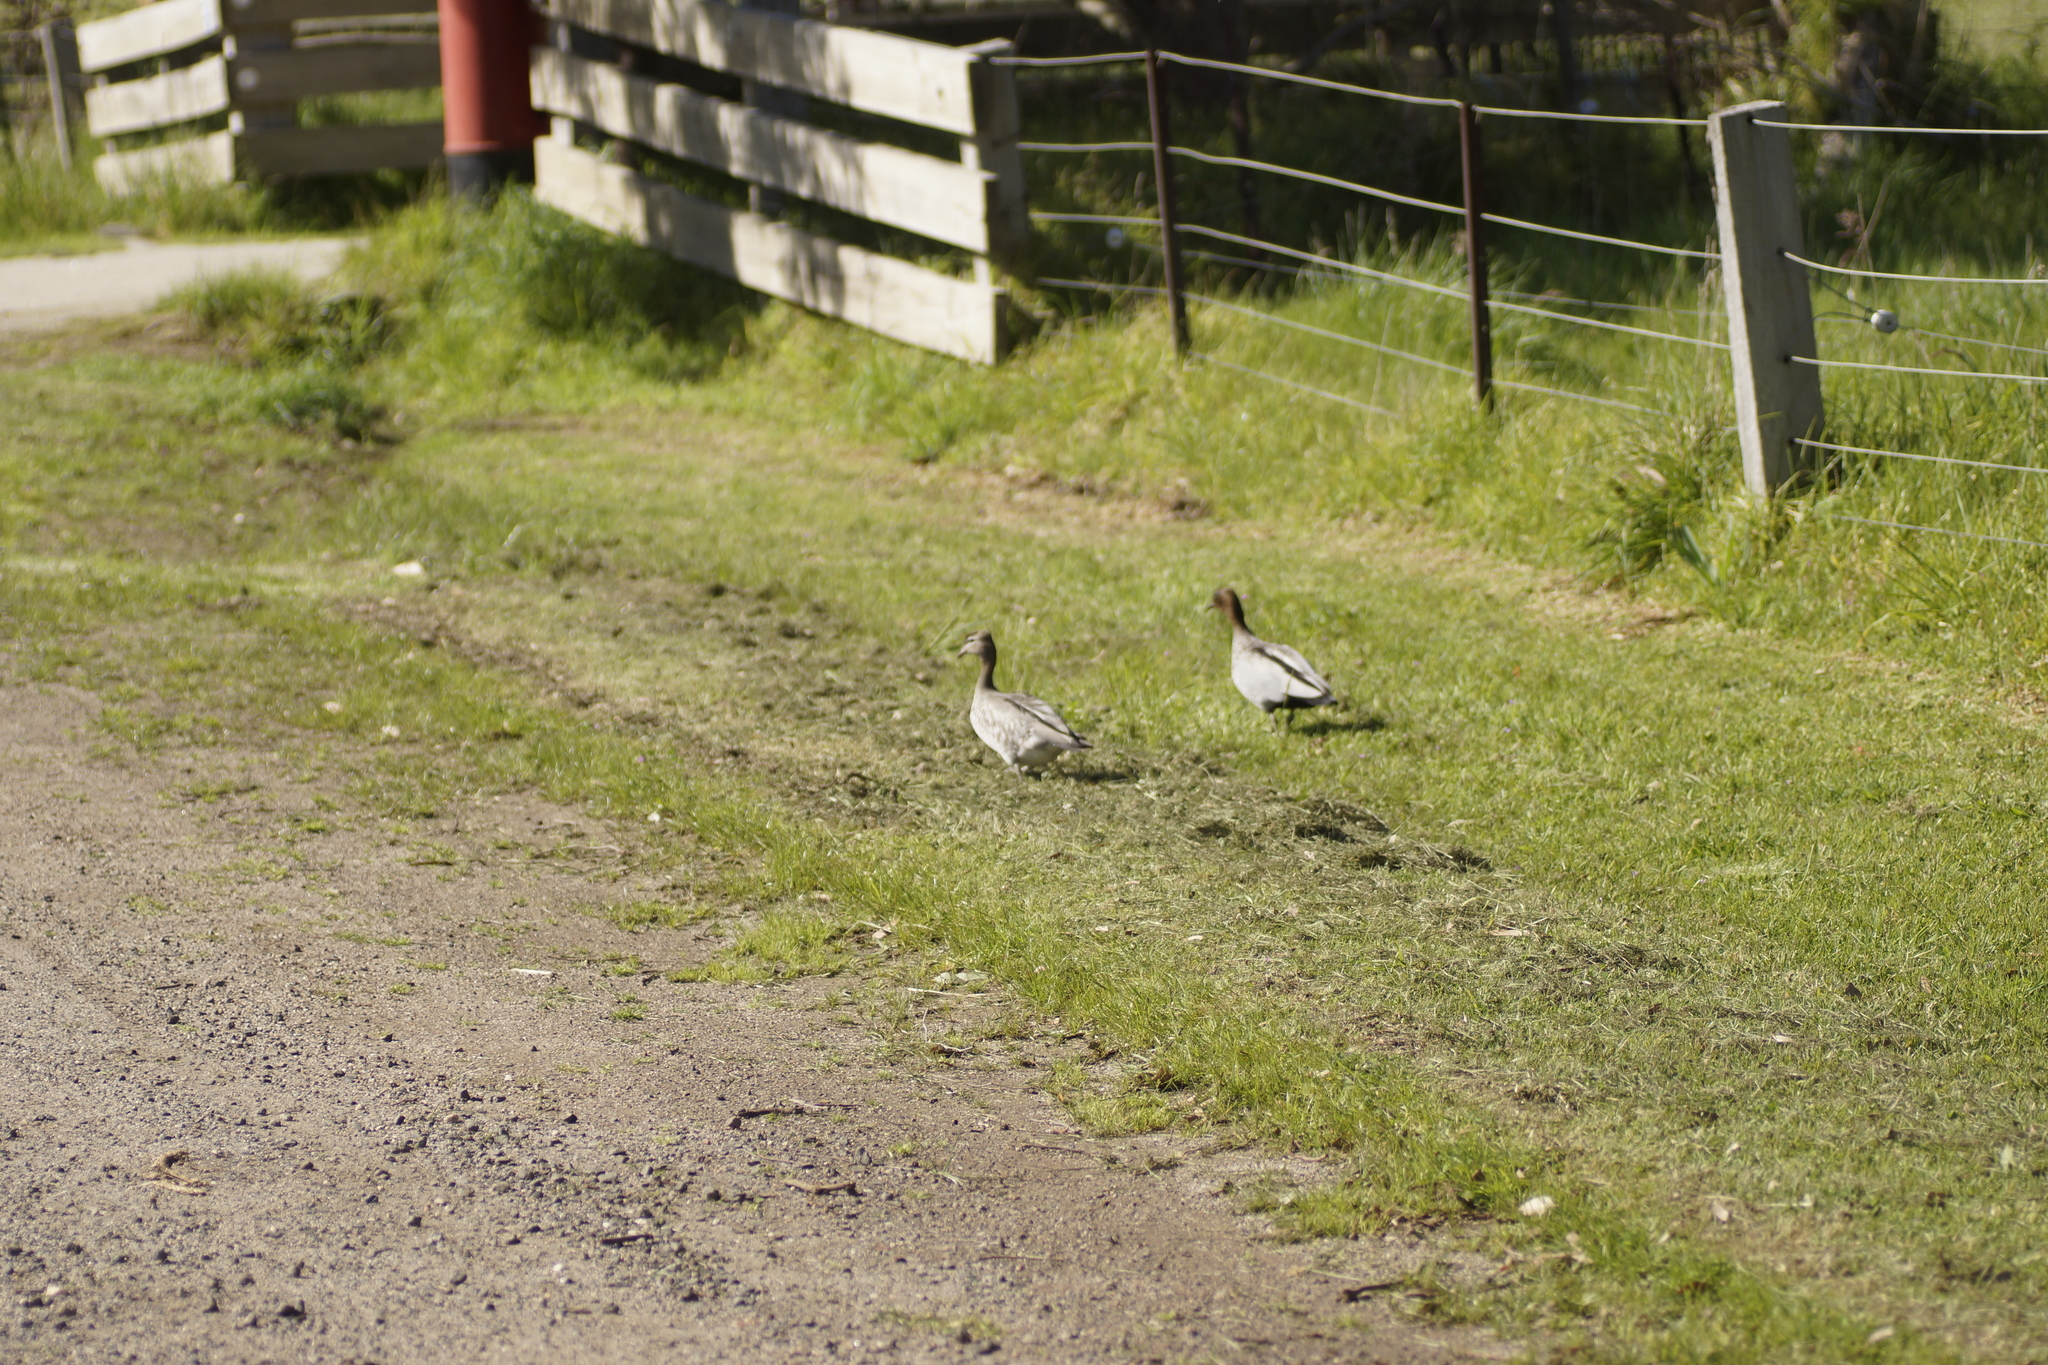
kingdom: Animalia
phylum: Chordata
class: Aves
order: Anseriformes
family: Anatidae
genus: Chenonetta
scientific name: Chenonetta jubata
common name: Maned duck
